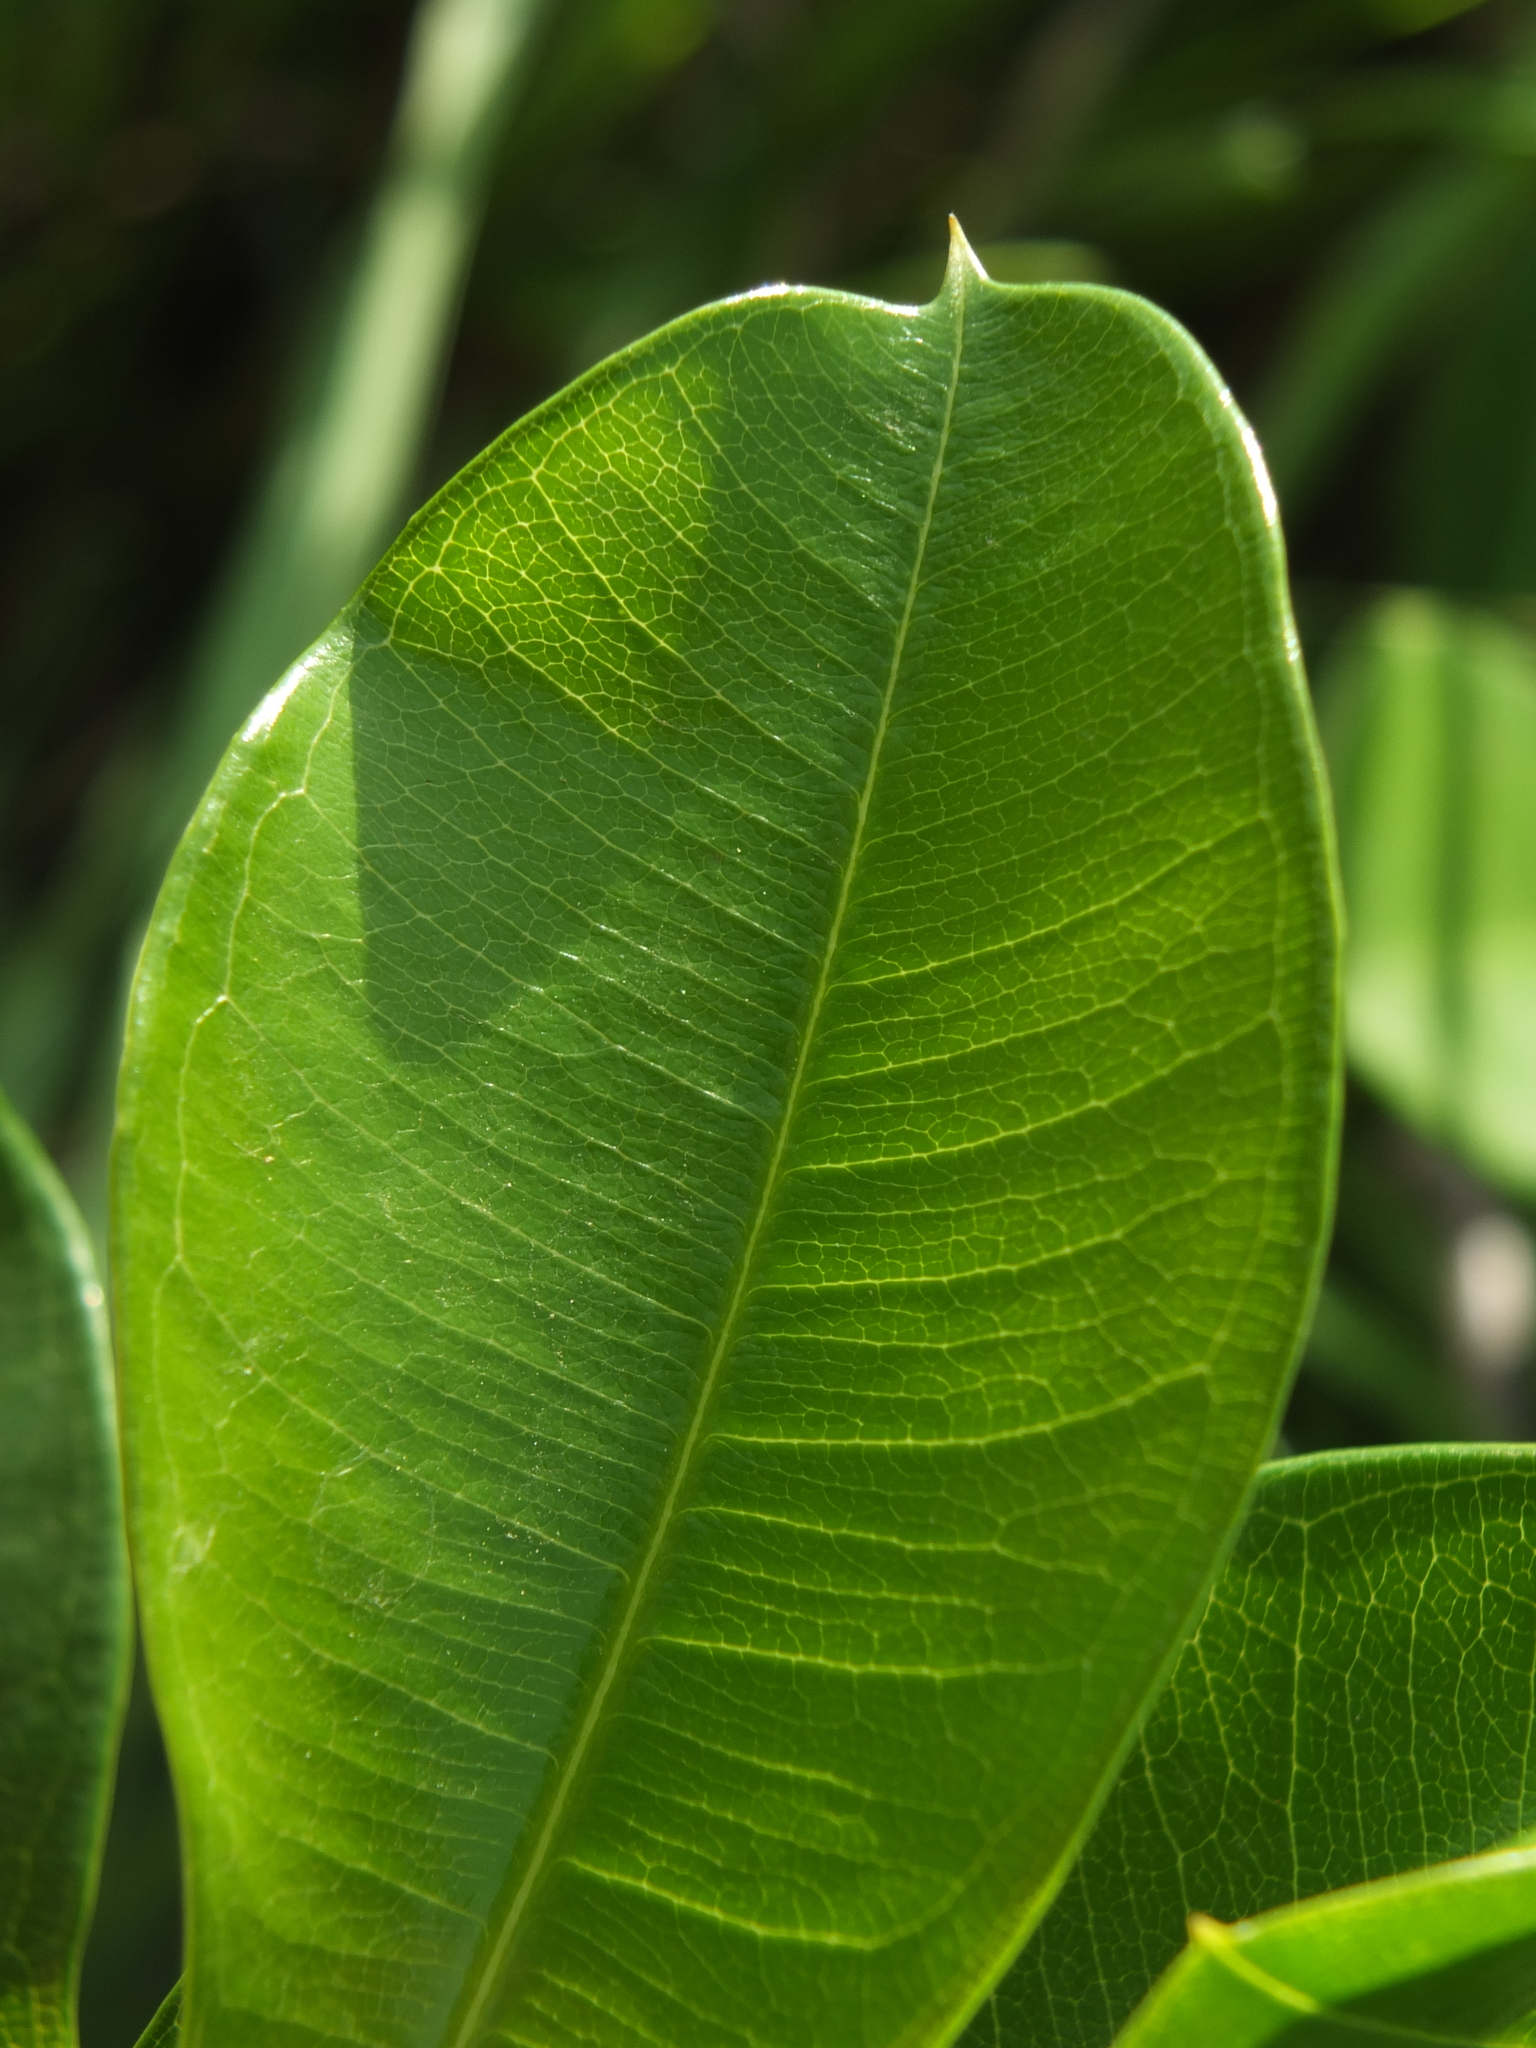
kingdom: Plantae
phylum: Tracheophyta
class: Magnoliopsida
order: Gentianales
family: Apocynaceae
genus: Cryptolepis
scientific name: Cryptolepis buchananii
